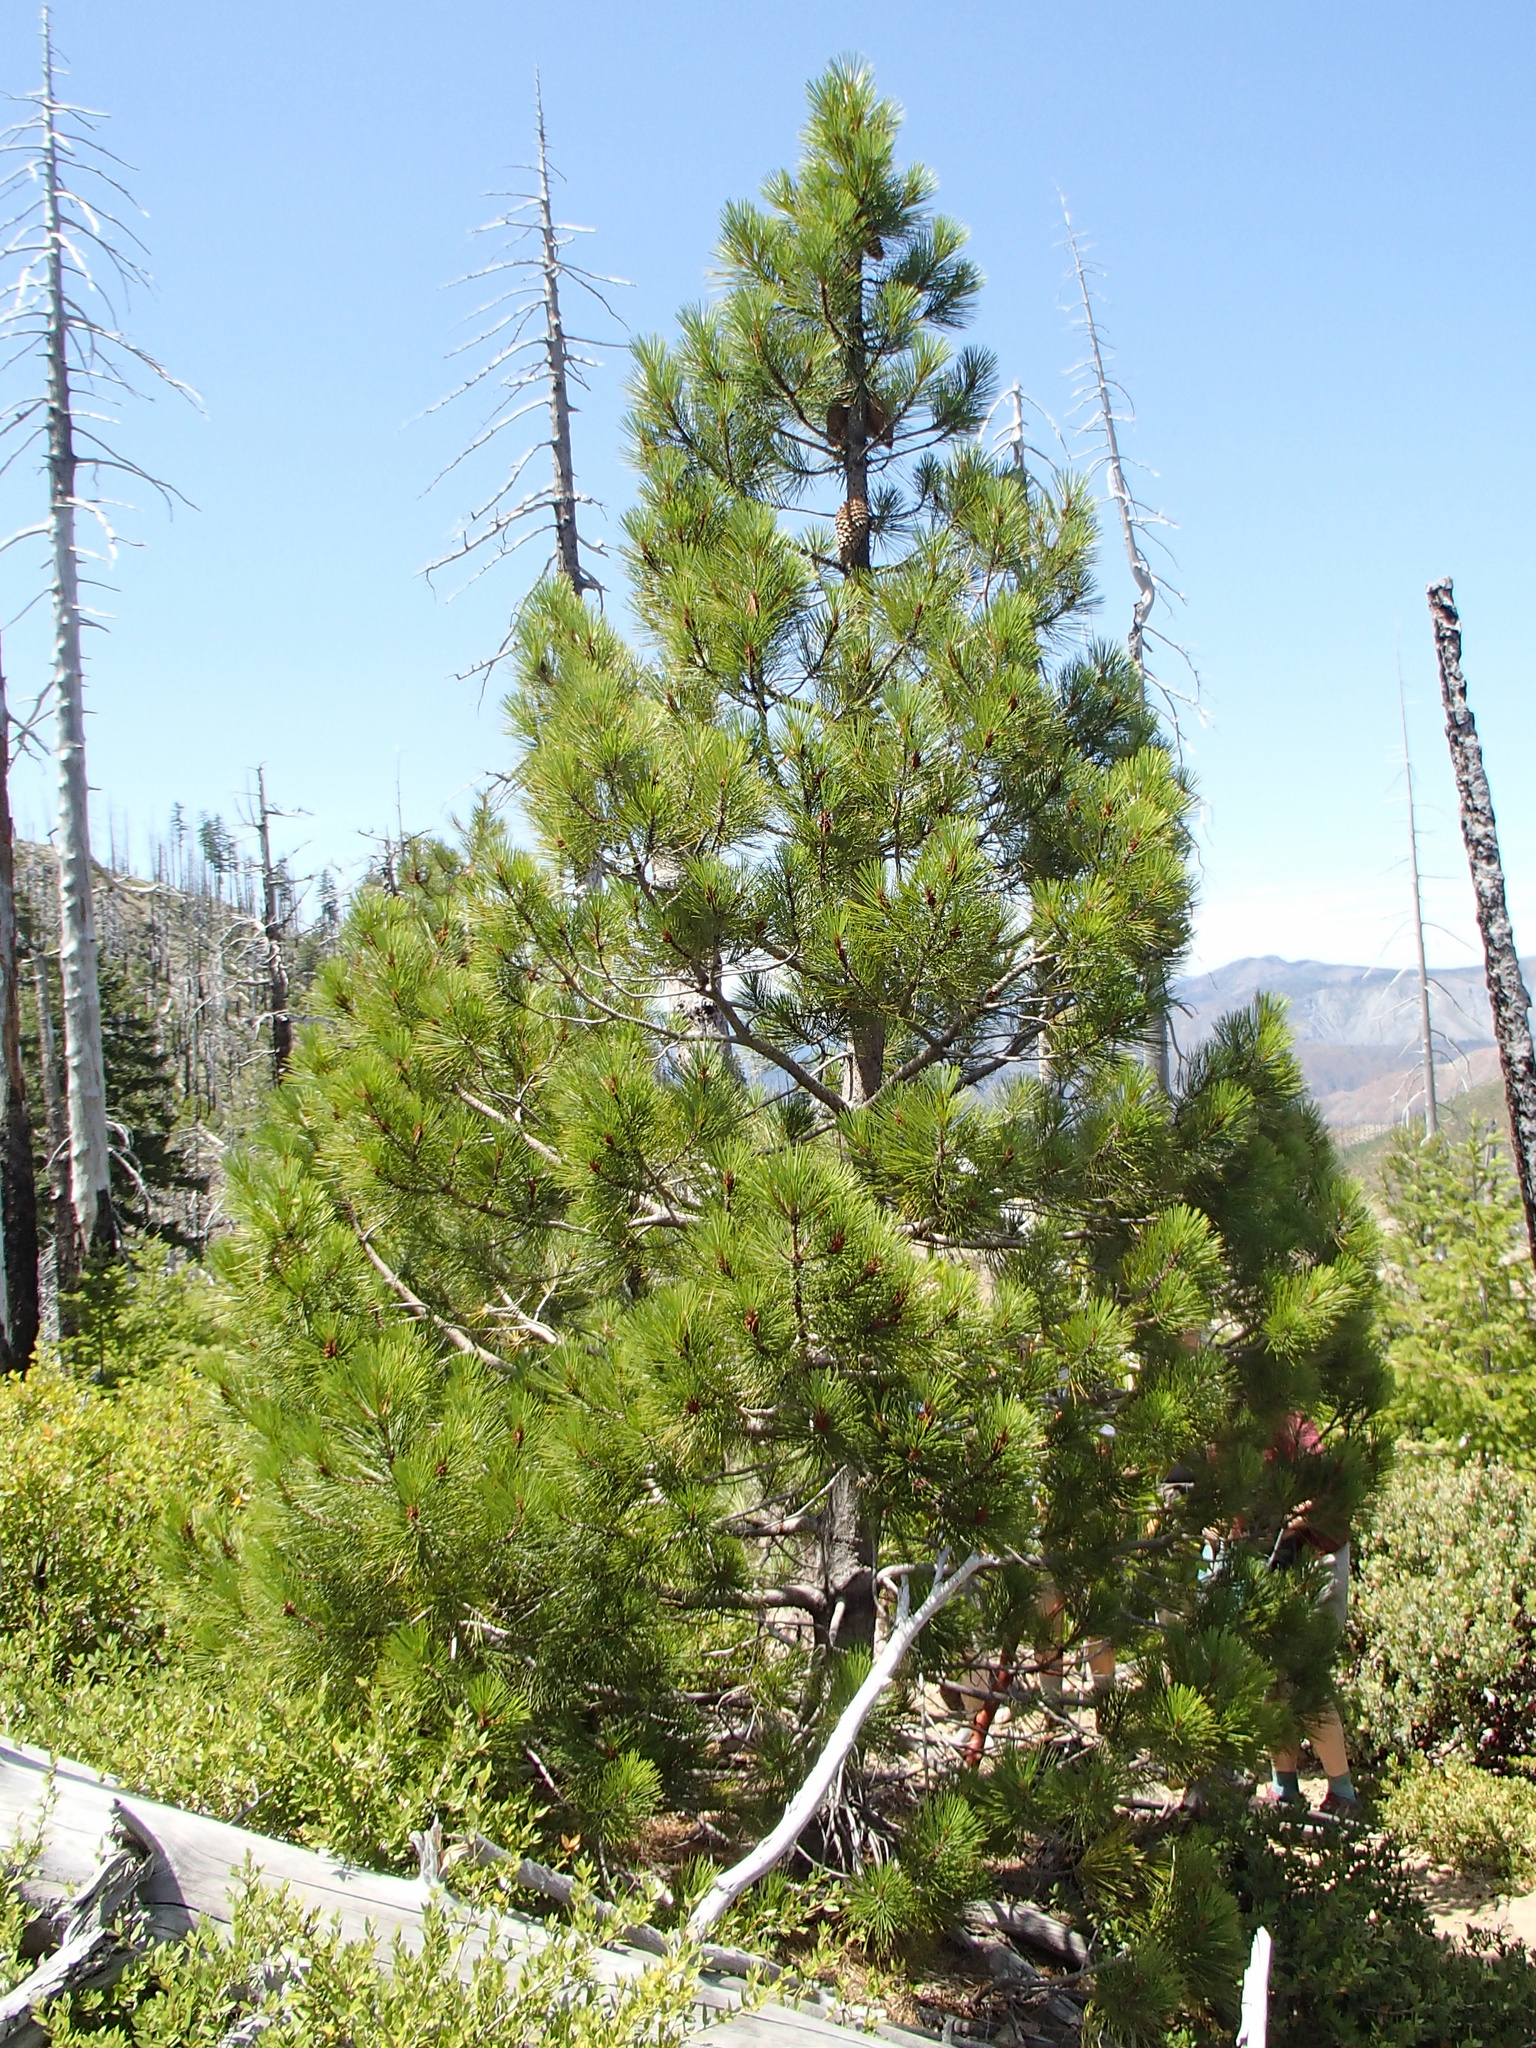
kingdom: Plantae
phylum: Tracheophyta
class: Pinopsida
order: Pinales
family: Pinaceae
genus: Pinus
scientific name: Pinus attenuata
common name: Knobcone pine
